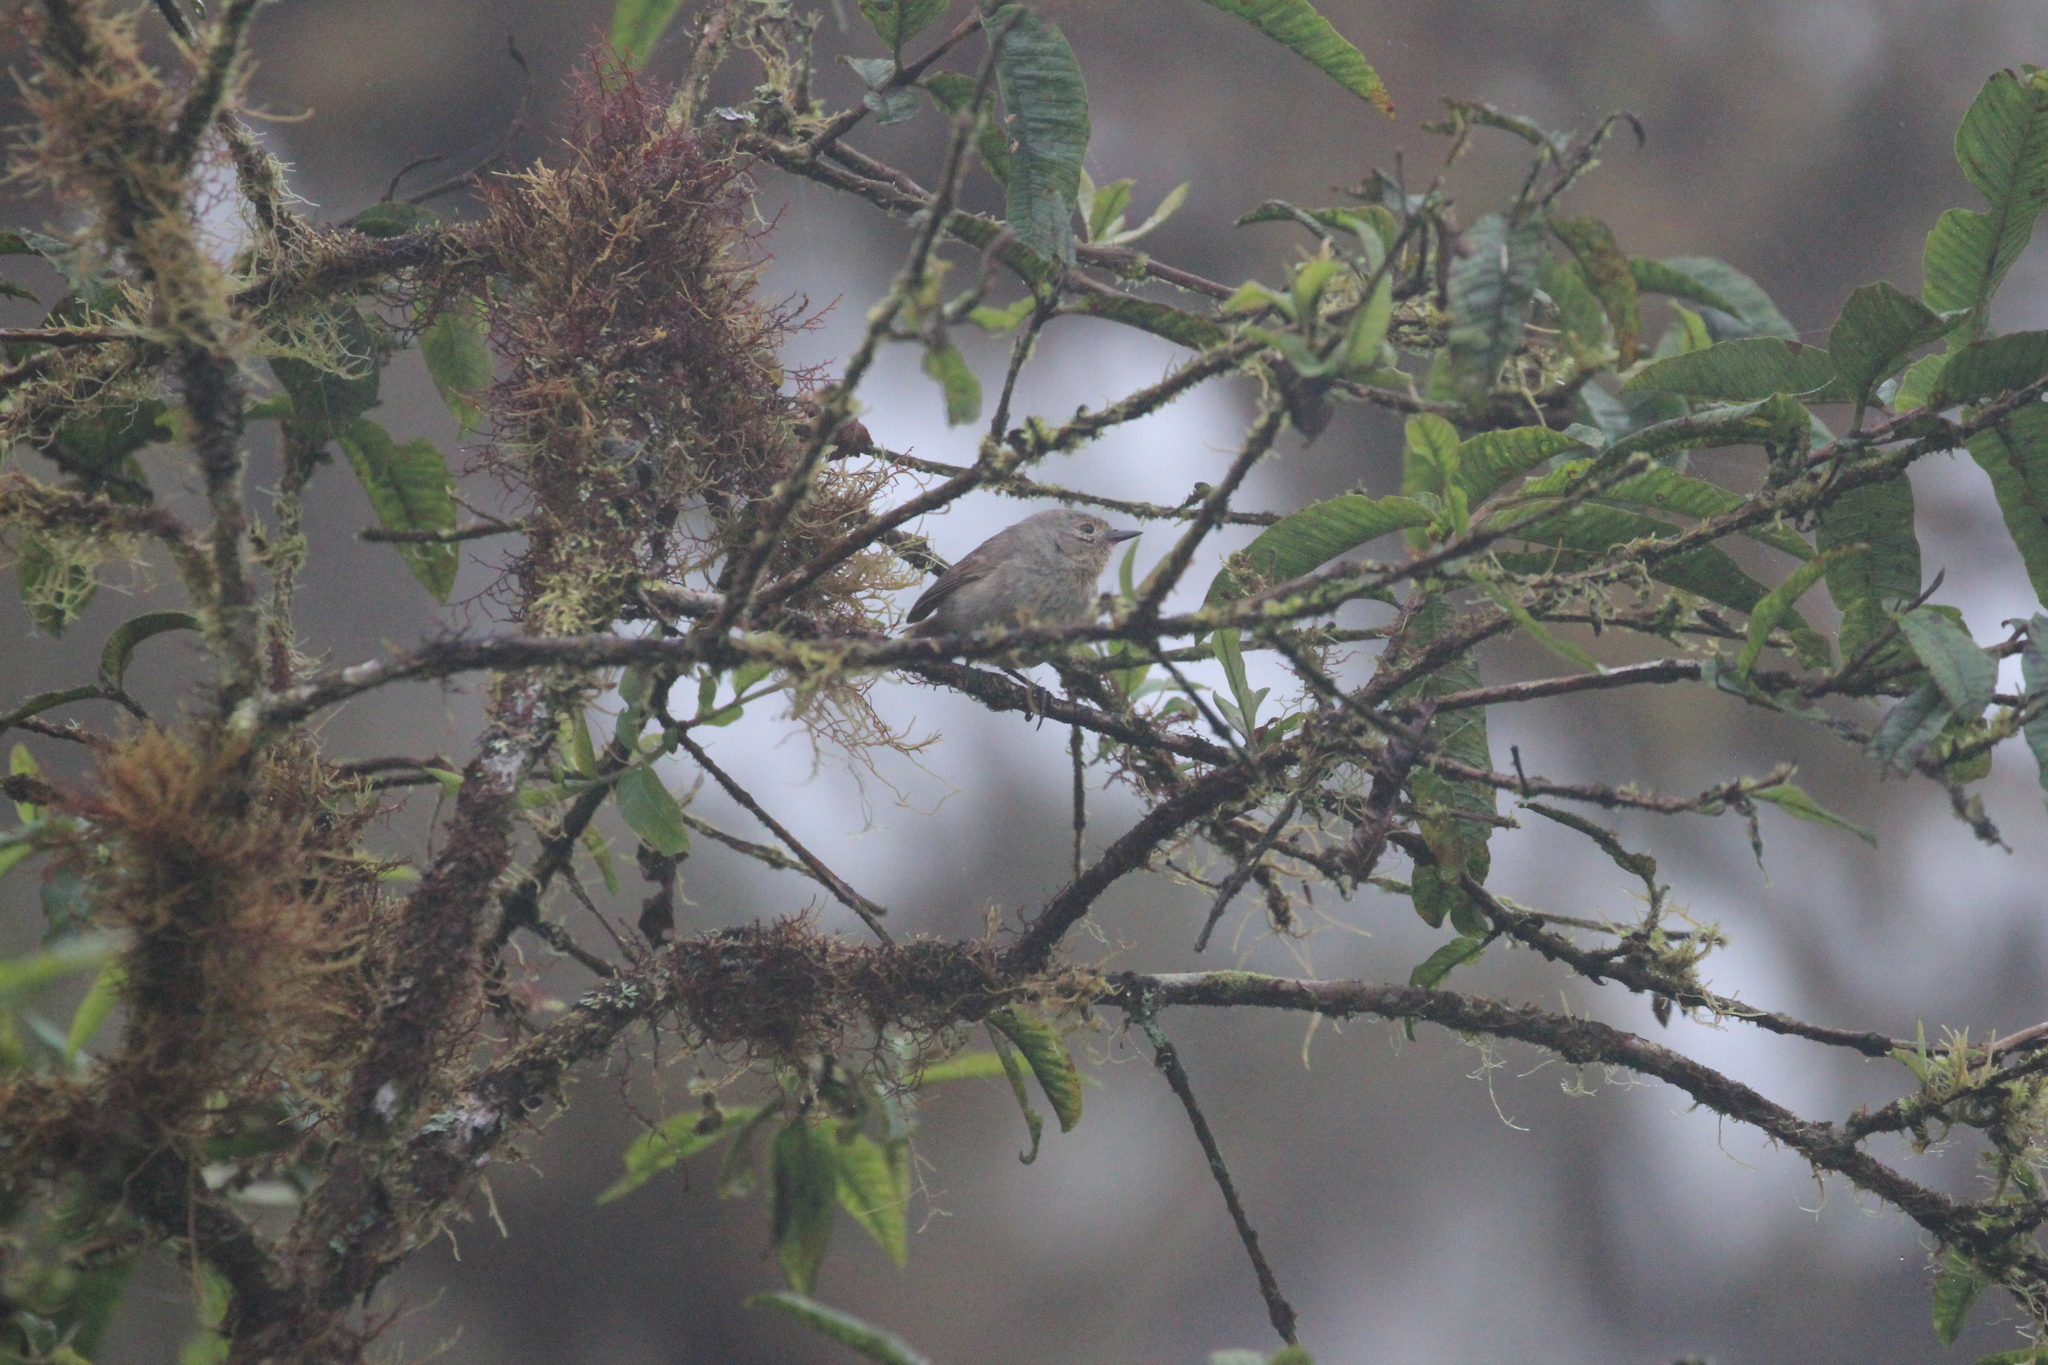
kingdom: Animalia
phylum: Chordata
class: Aves
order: Passeriformes
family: Thraupidae
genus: Certhidea
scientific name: Certhidea olivacea
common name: Green warbler-finch
